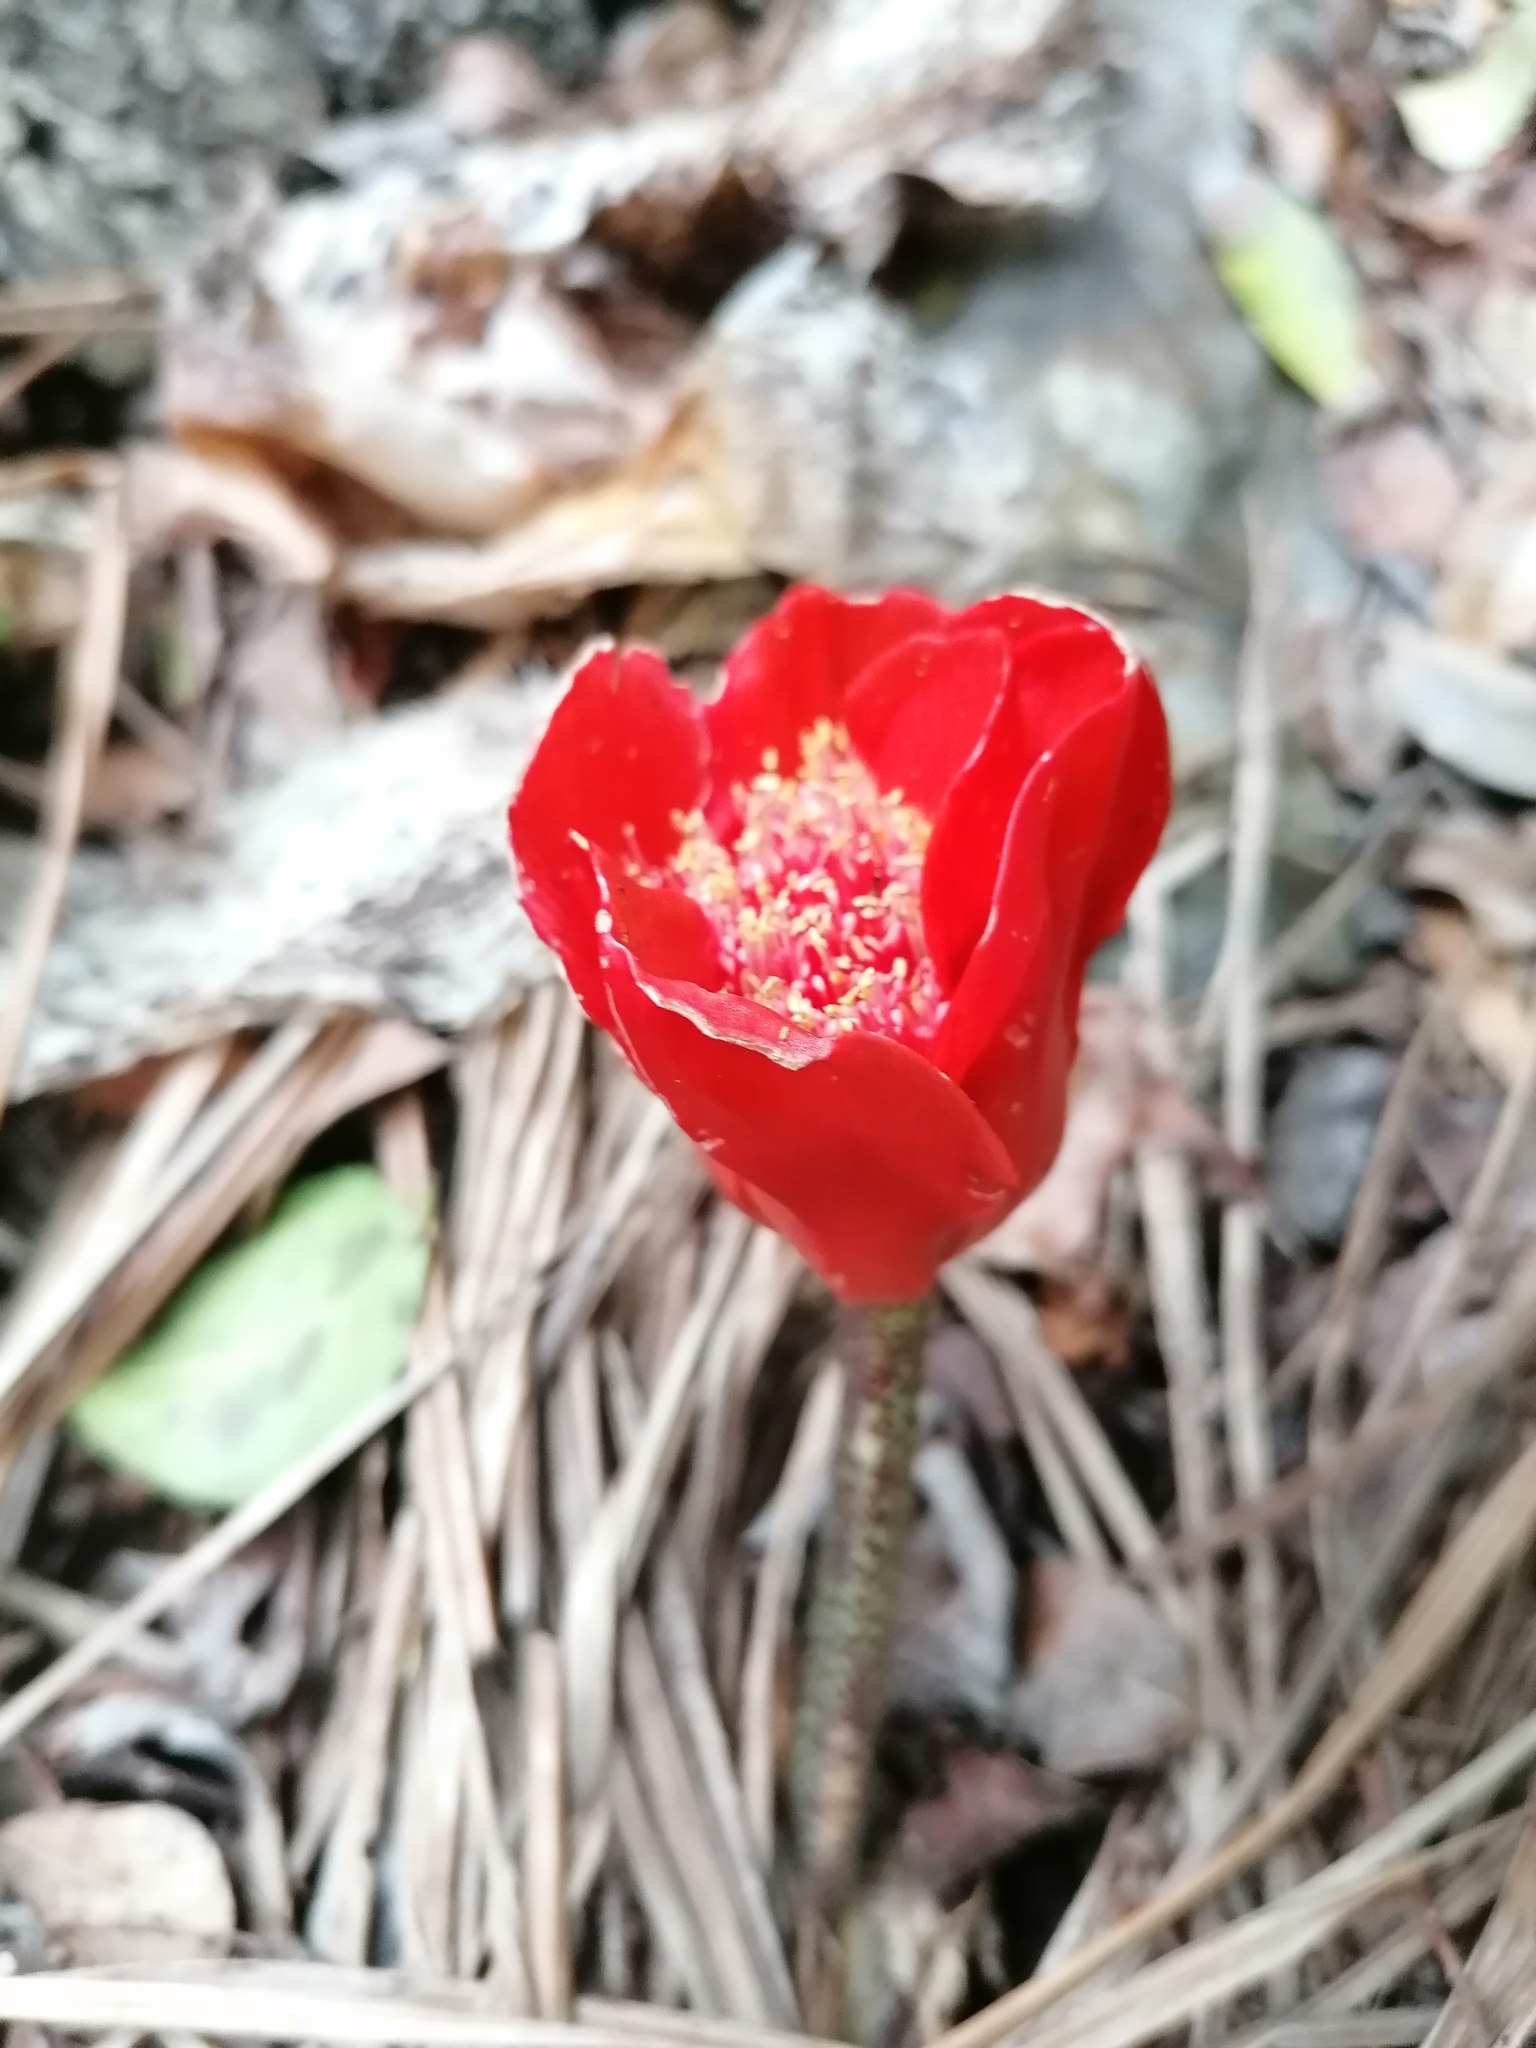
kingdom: Plantae
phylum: Tracheophyta
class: Liliopsida
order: Asparagales
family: Amaryllidaceae
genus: Haemanthus
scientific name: Haemanthus coccineus
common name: Cape-tulip
